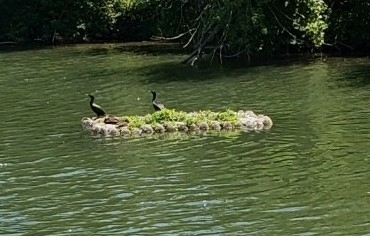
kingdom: Animalia
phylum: Chordata
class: Aves
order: Suliformes
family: Phalacrocoracidae
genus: Phalacrocorax
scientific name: Phalacrocorax auritus
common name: Double-crested cormorant
